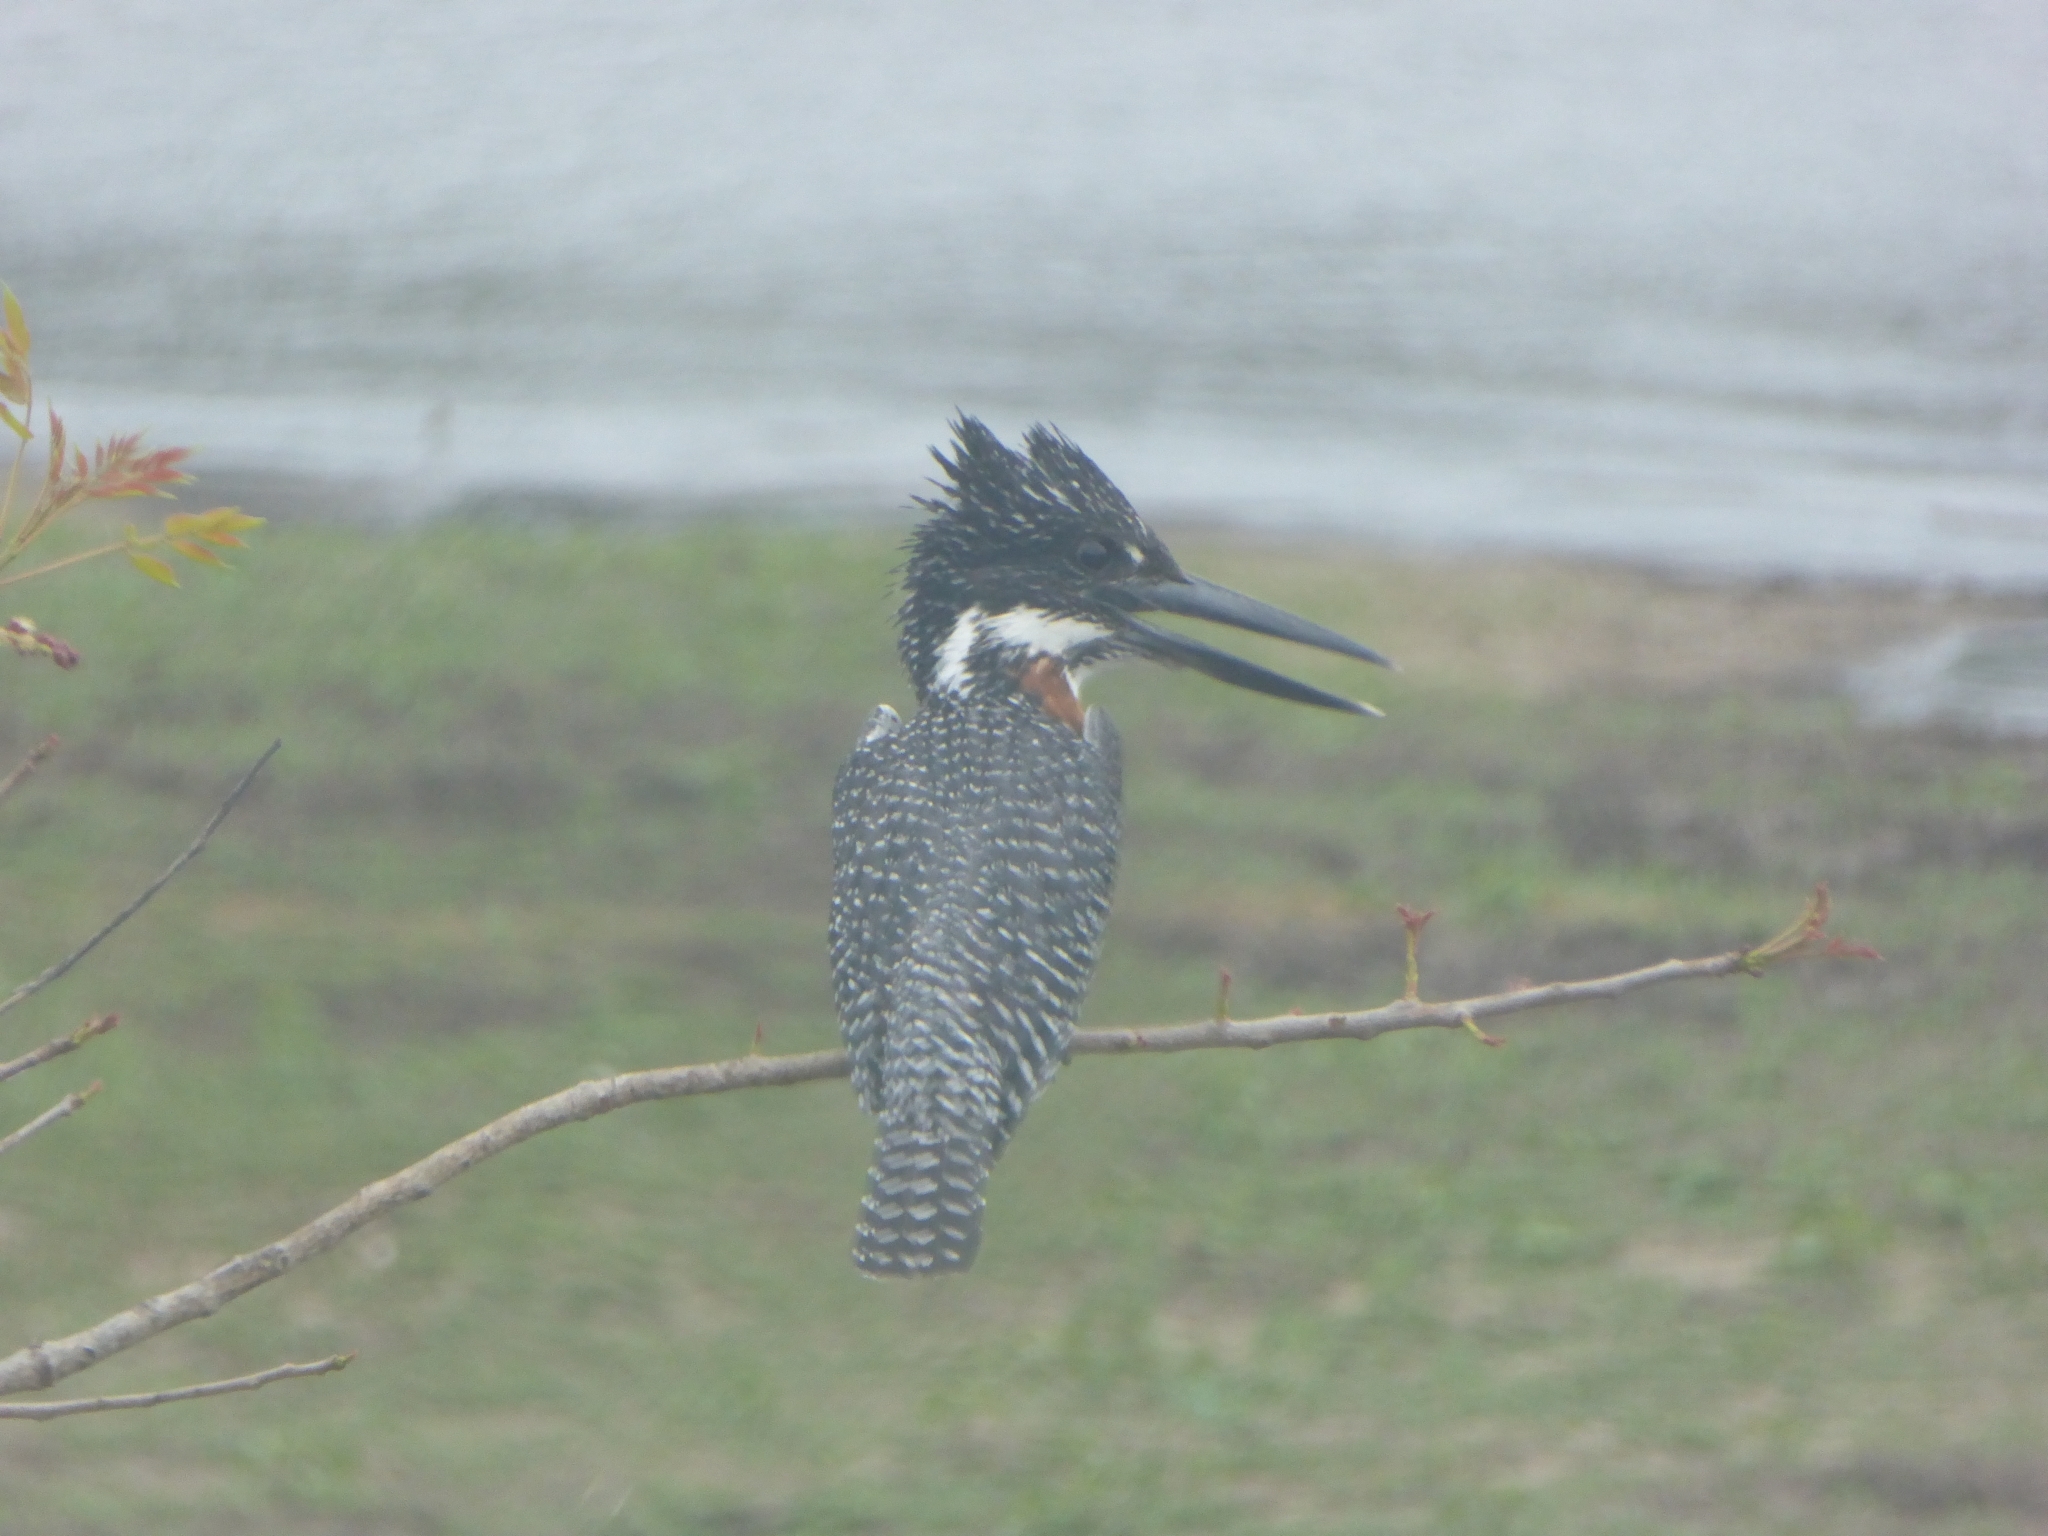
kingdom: Animalia
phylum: Chordata
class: Aves
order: Coraciiformes
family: Alcedinidae
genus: Megaceryle
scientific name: Megaceryle maxima
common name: Giant kingfisher
